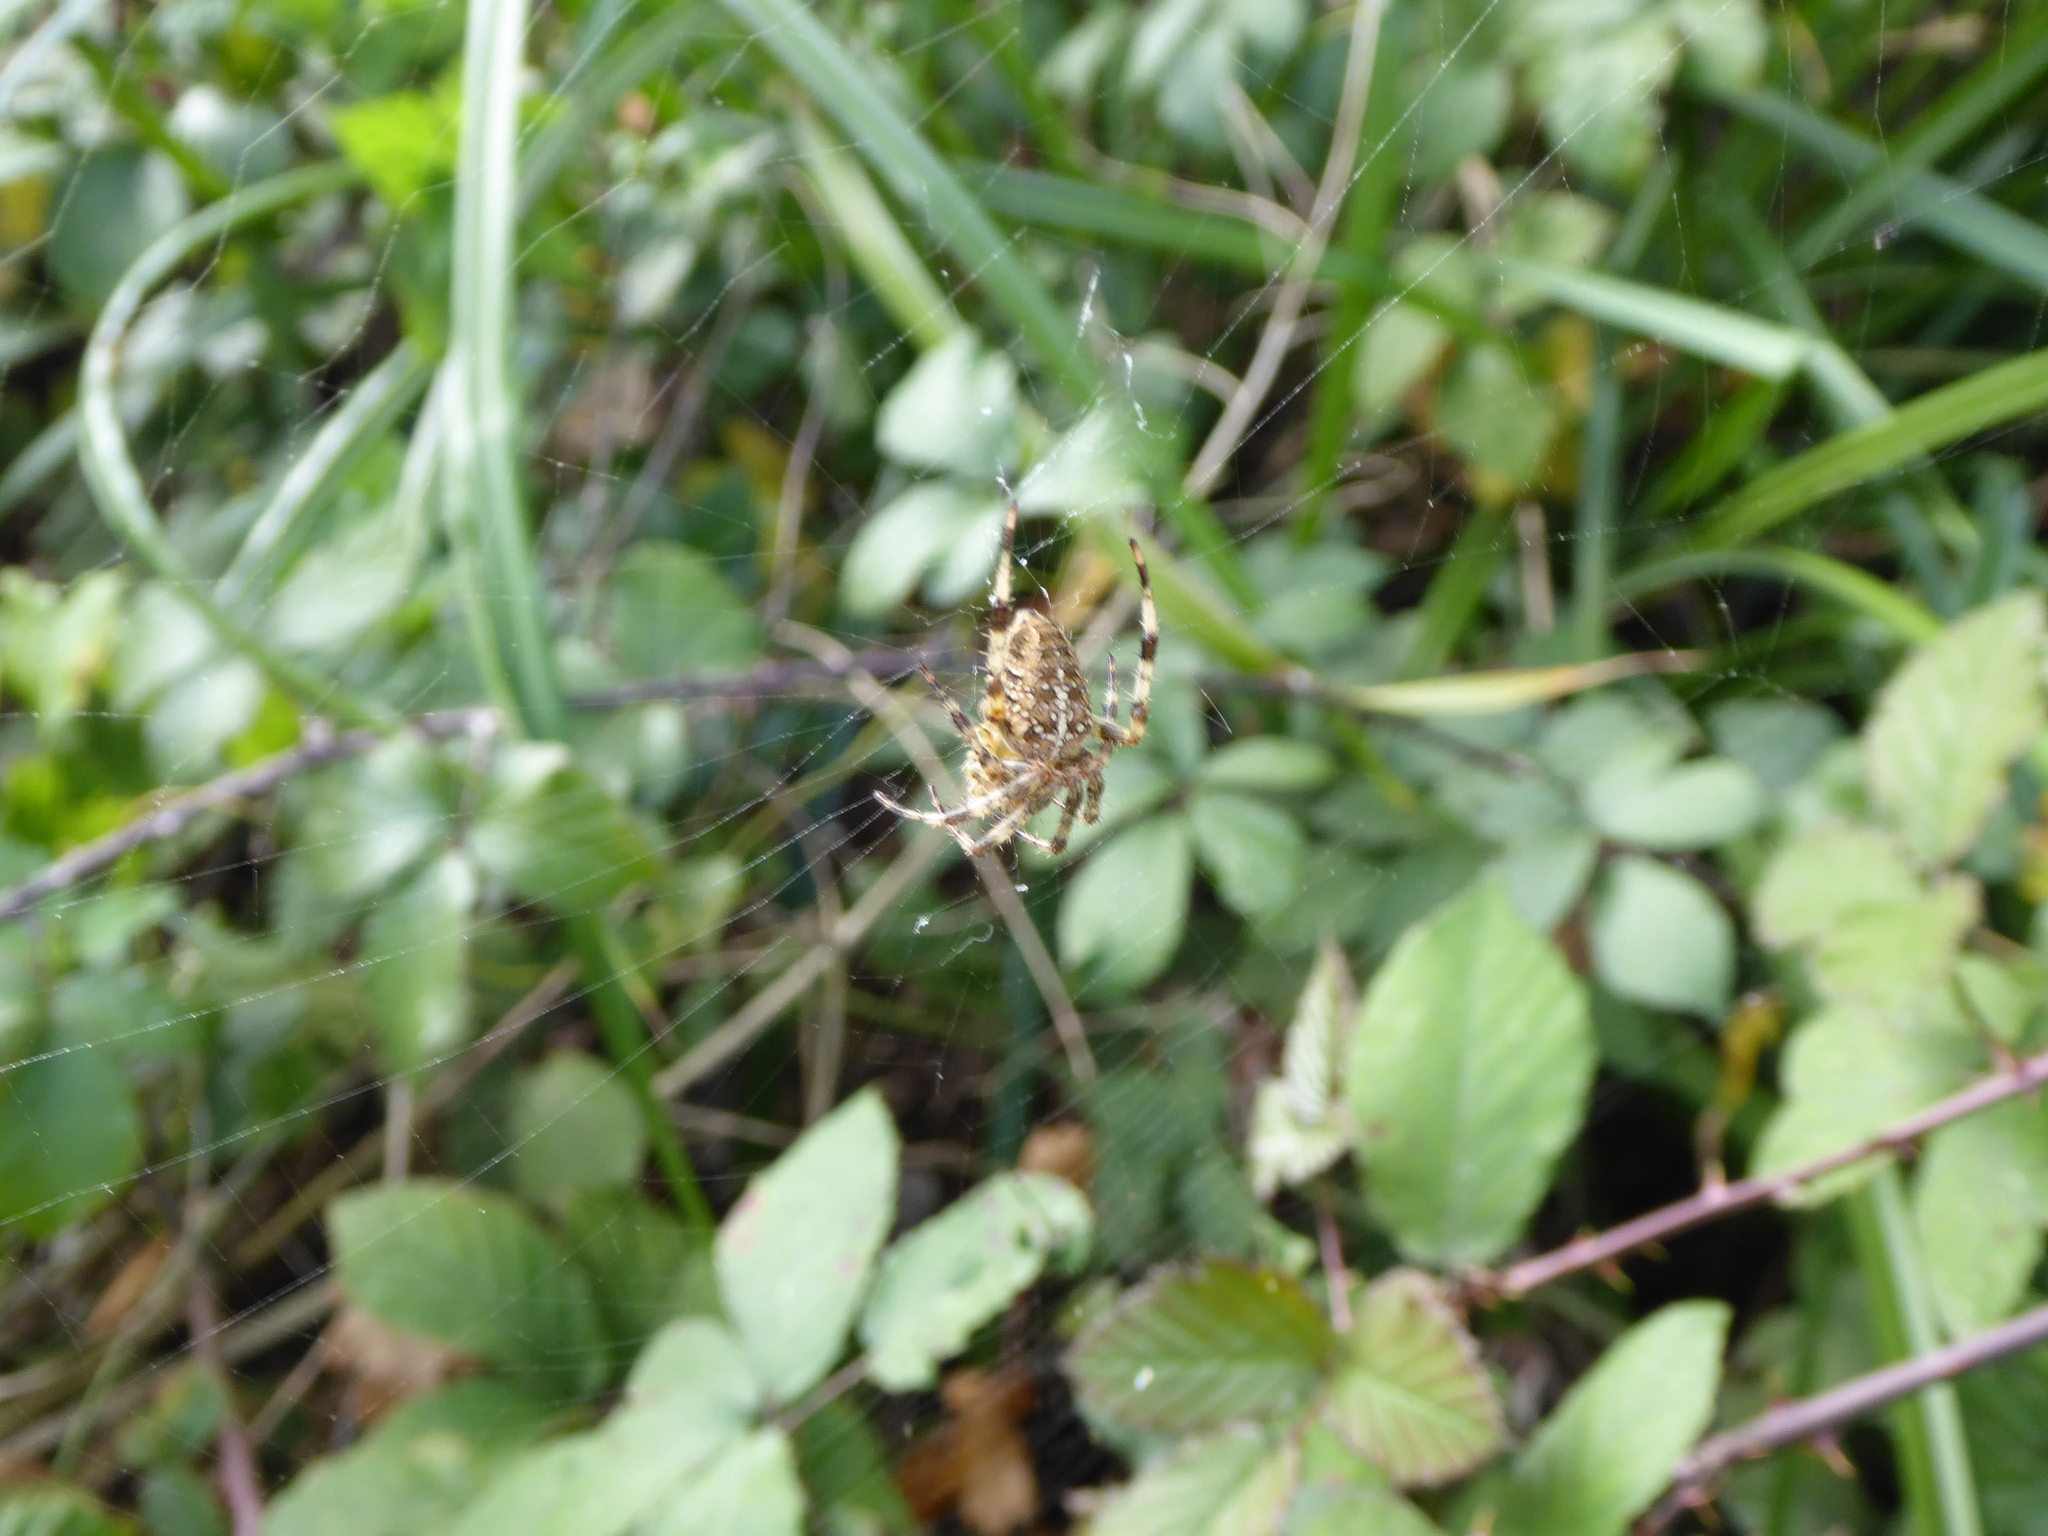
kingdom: Animalia
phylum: Arthropoda
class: Arachnida
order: Araneae
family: Araneidae
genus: Araneus
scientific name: Araneus diadematus
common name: Cross orbweaver
